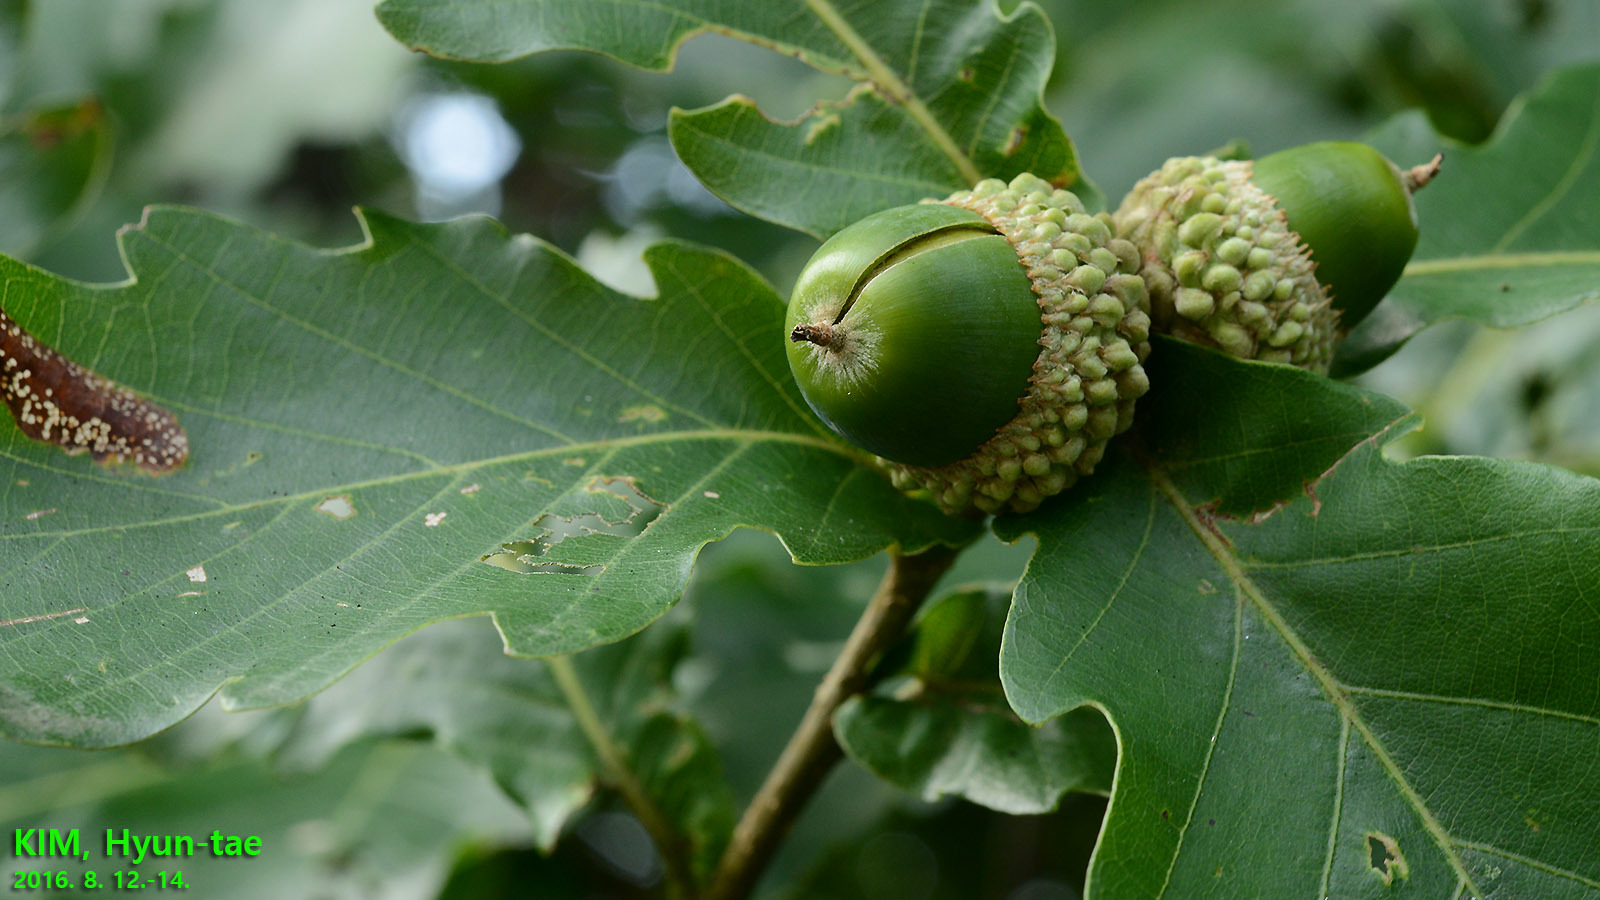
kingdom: Plantae
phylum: Tracheophyta
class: Magnoliopsida
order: Fagales
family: Fagaceae
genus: Quercus
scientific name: Quercus mongolica
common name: Mongolian oak
